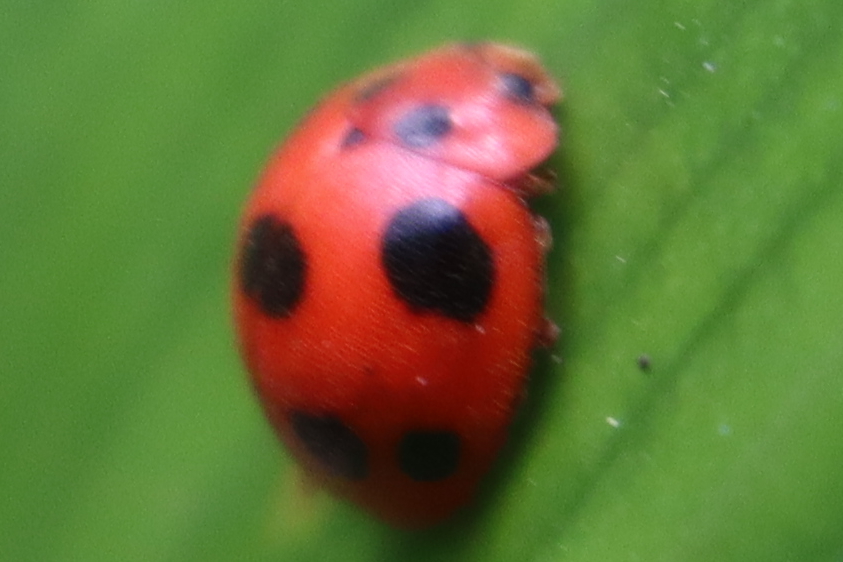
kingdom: Animalia
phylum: Arthropoda
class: Insecta
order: Coleoptera
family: Coccinellidae
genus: Exoplectra
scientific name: Exoplectra
